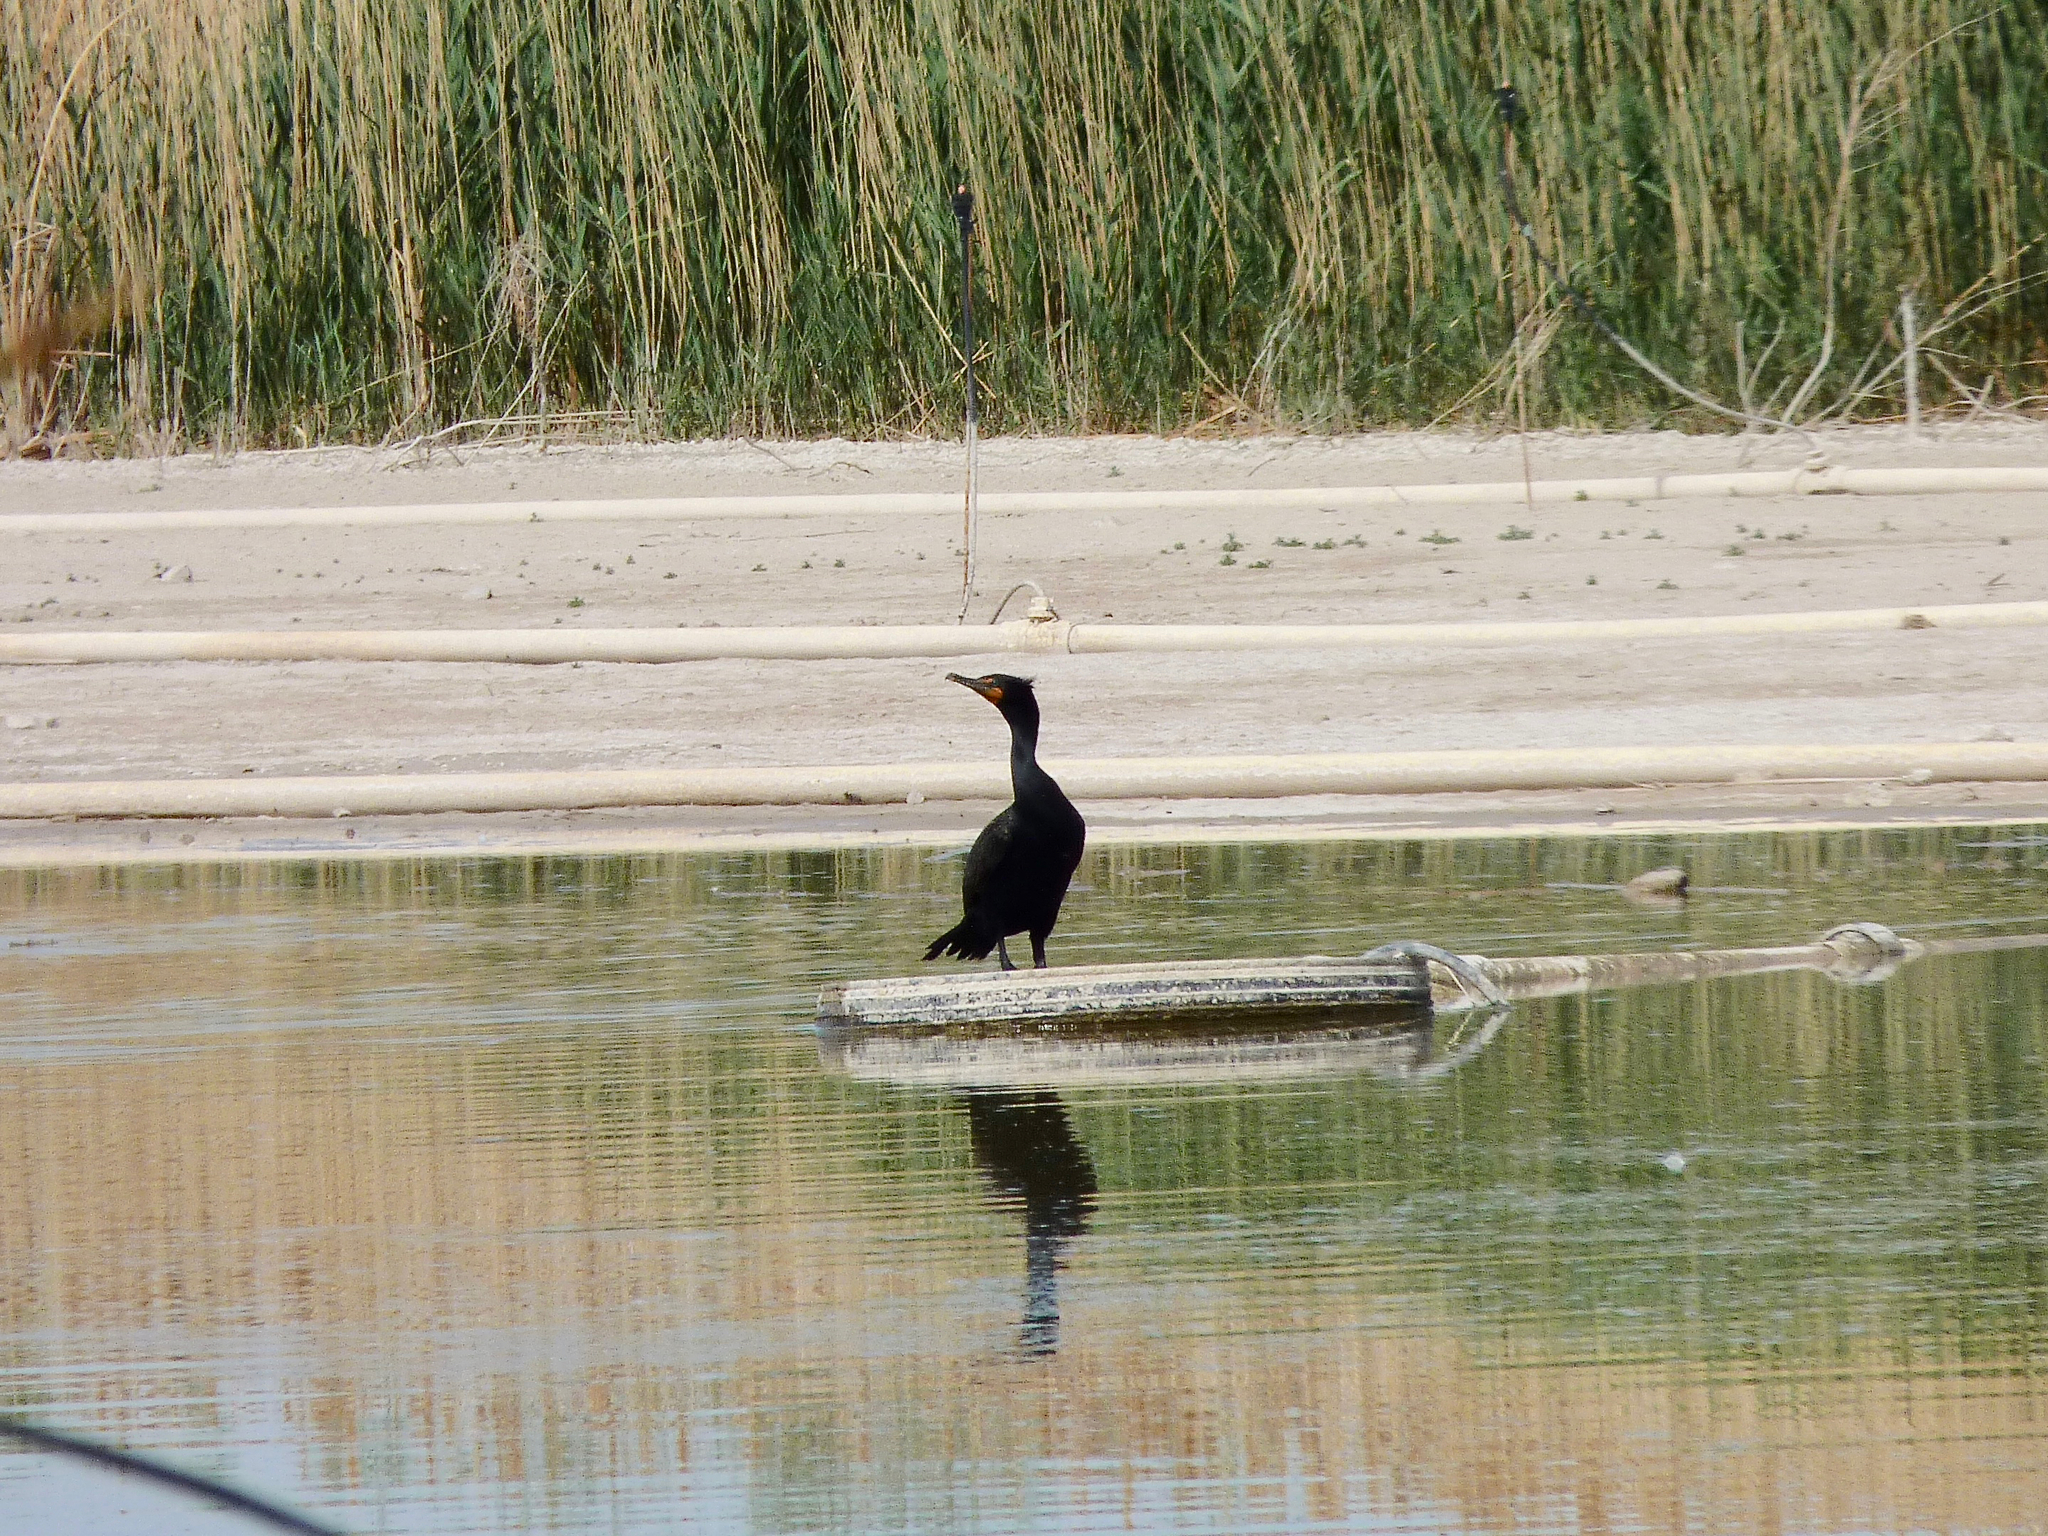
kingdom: Animalia
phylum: Chordata
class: Aves
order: Suliformes
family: Phalacrocoracidae
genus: Phalacrocorax
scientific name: Phalacrocorax auritus
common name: Double-crested cormorant
